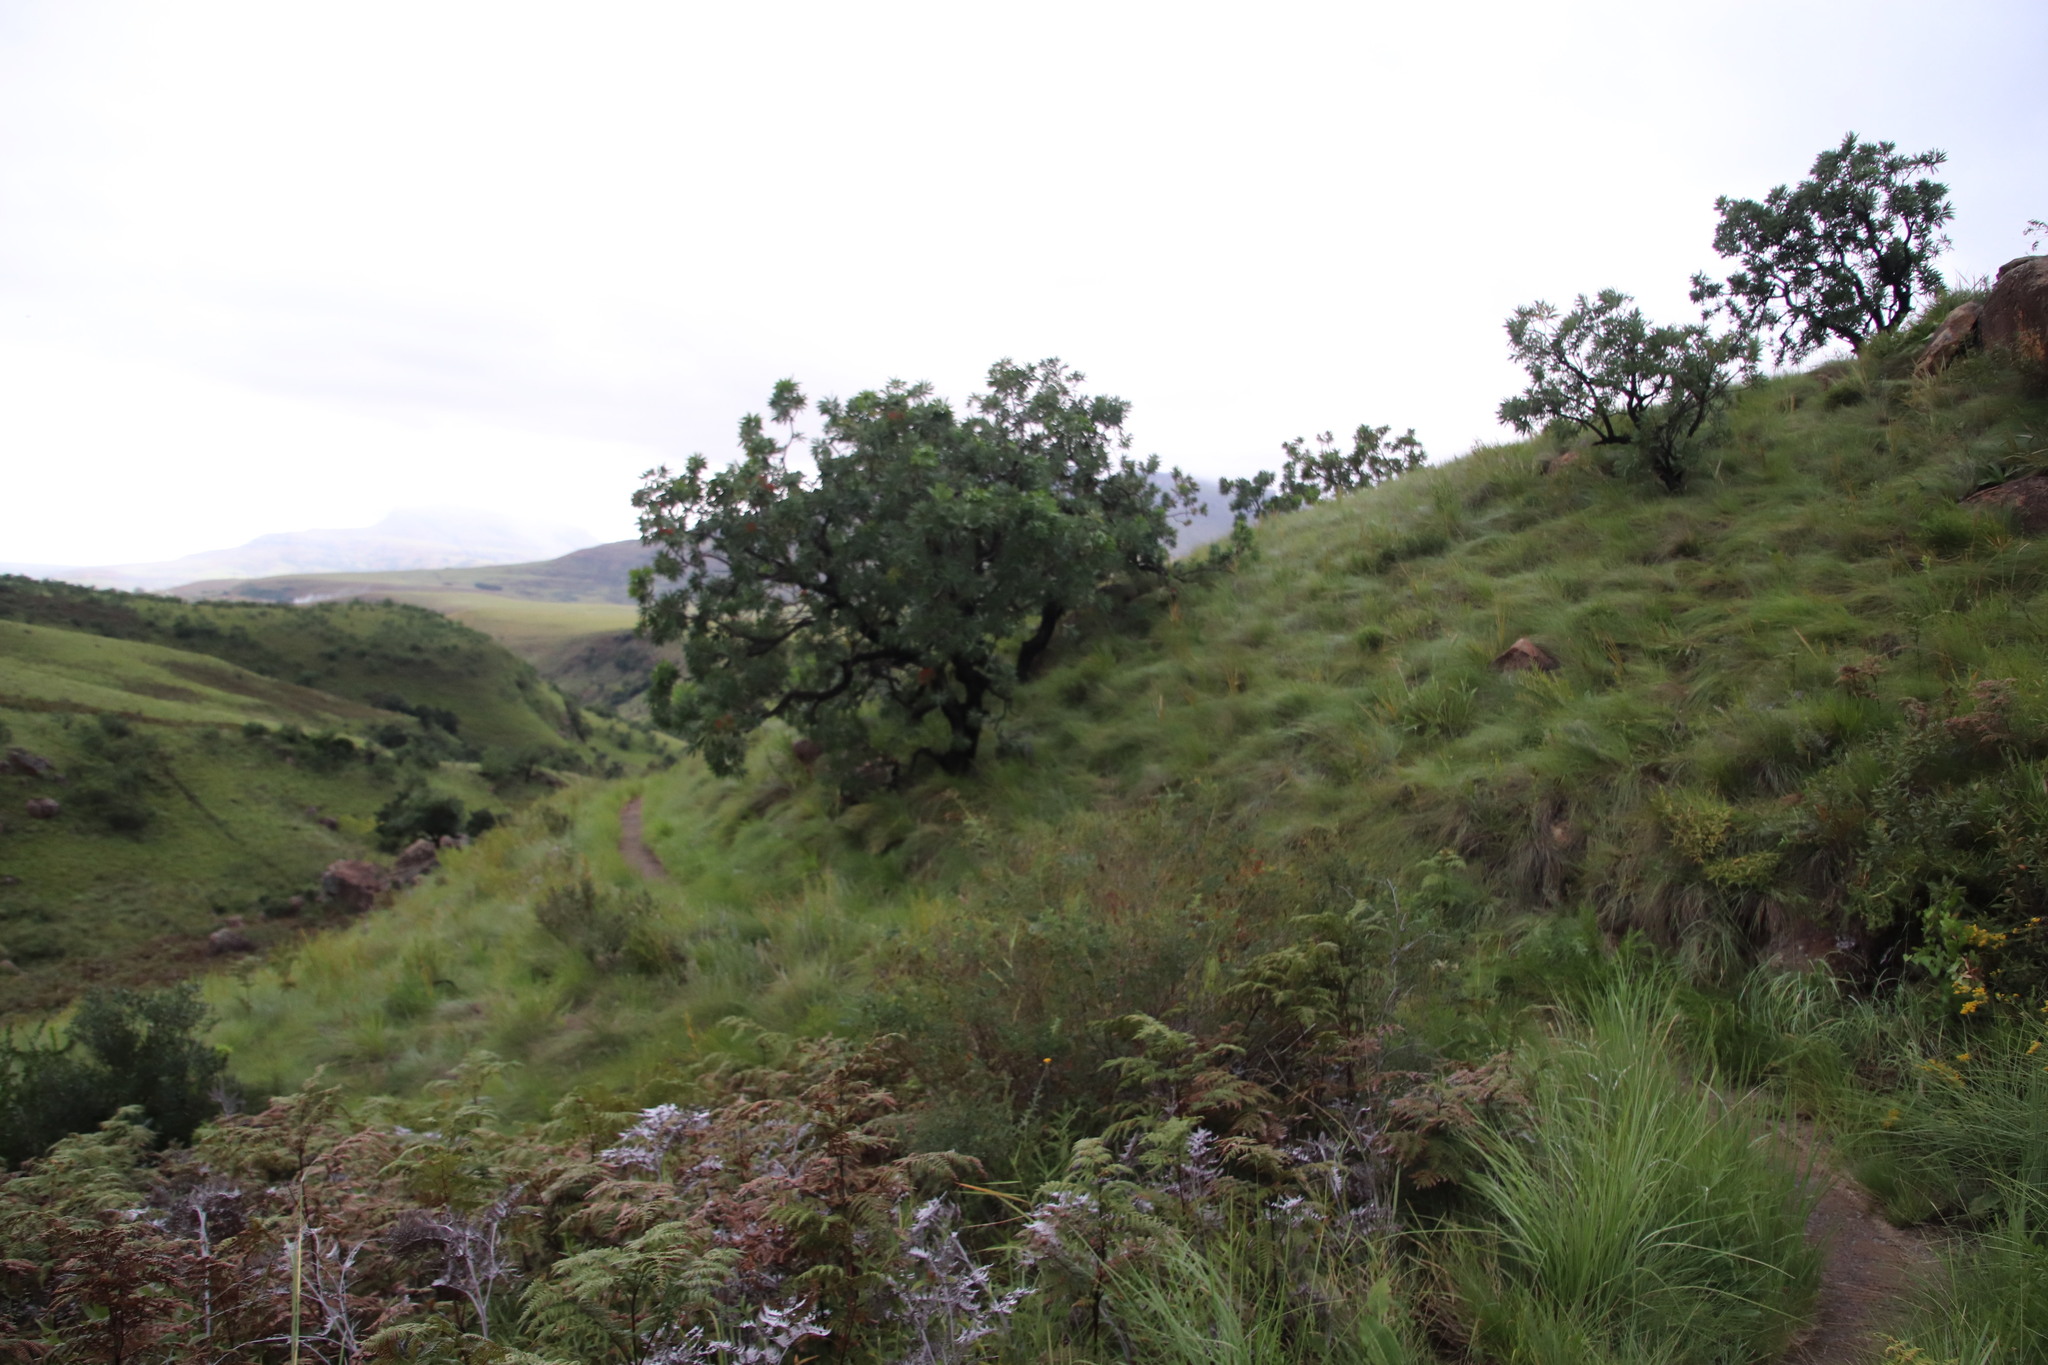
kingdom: Plantae
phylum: Tracheophyta
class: Magnoliopsida
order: Proteales
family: Proteaceae
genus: Protea
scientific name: Protea caffra
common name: Common sugarbush
